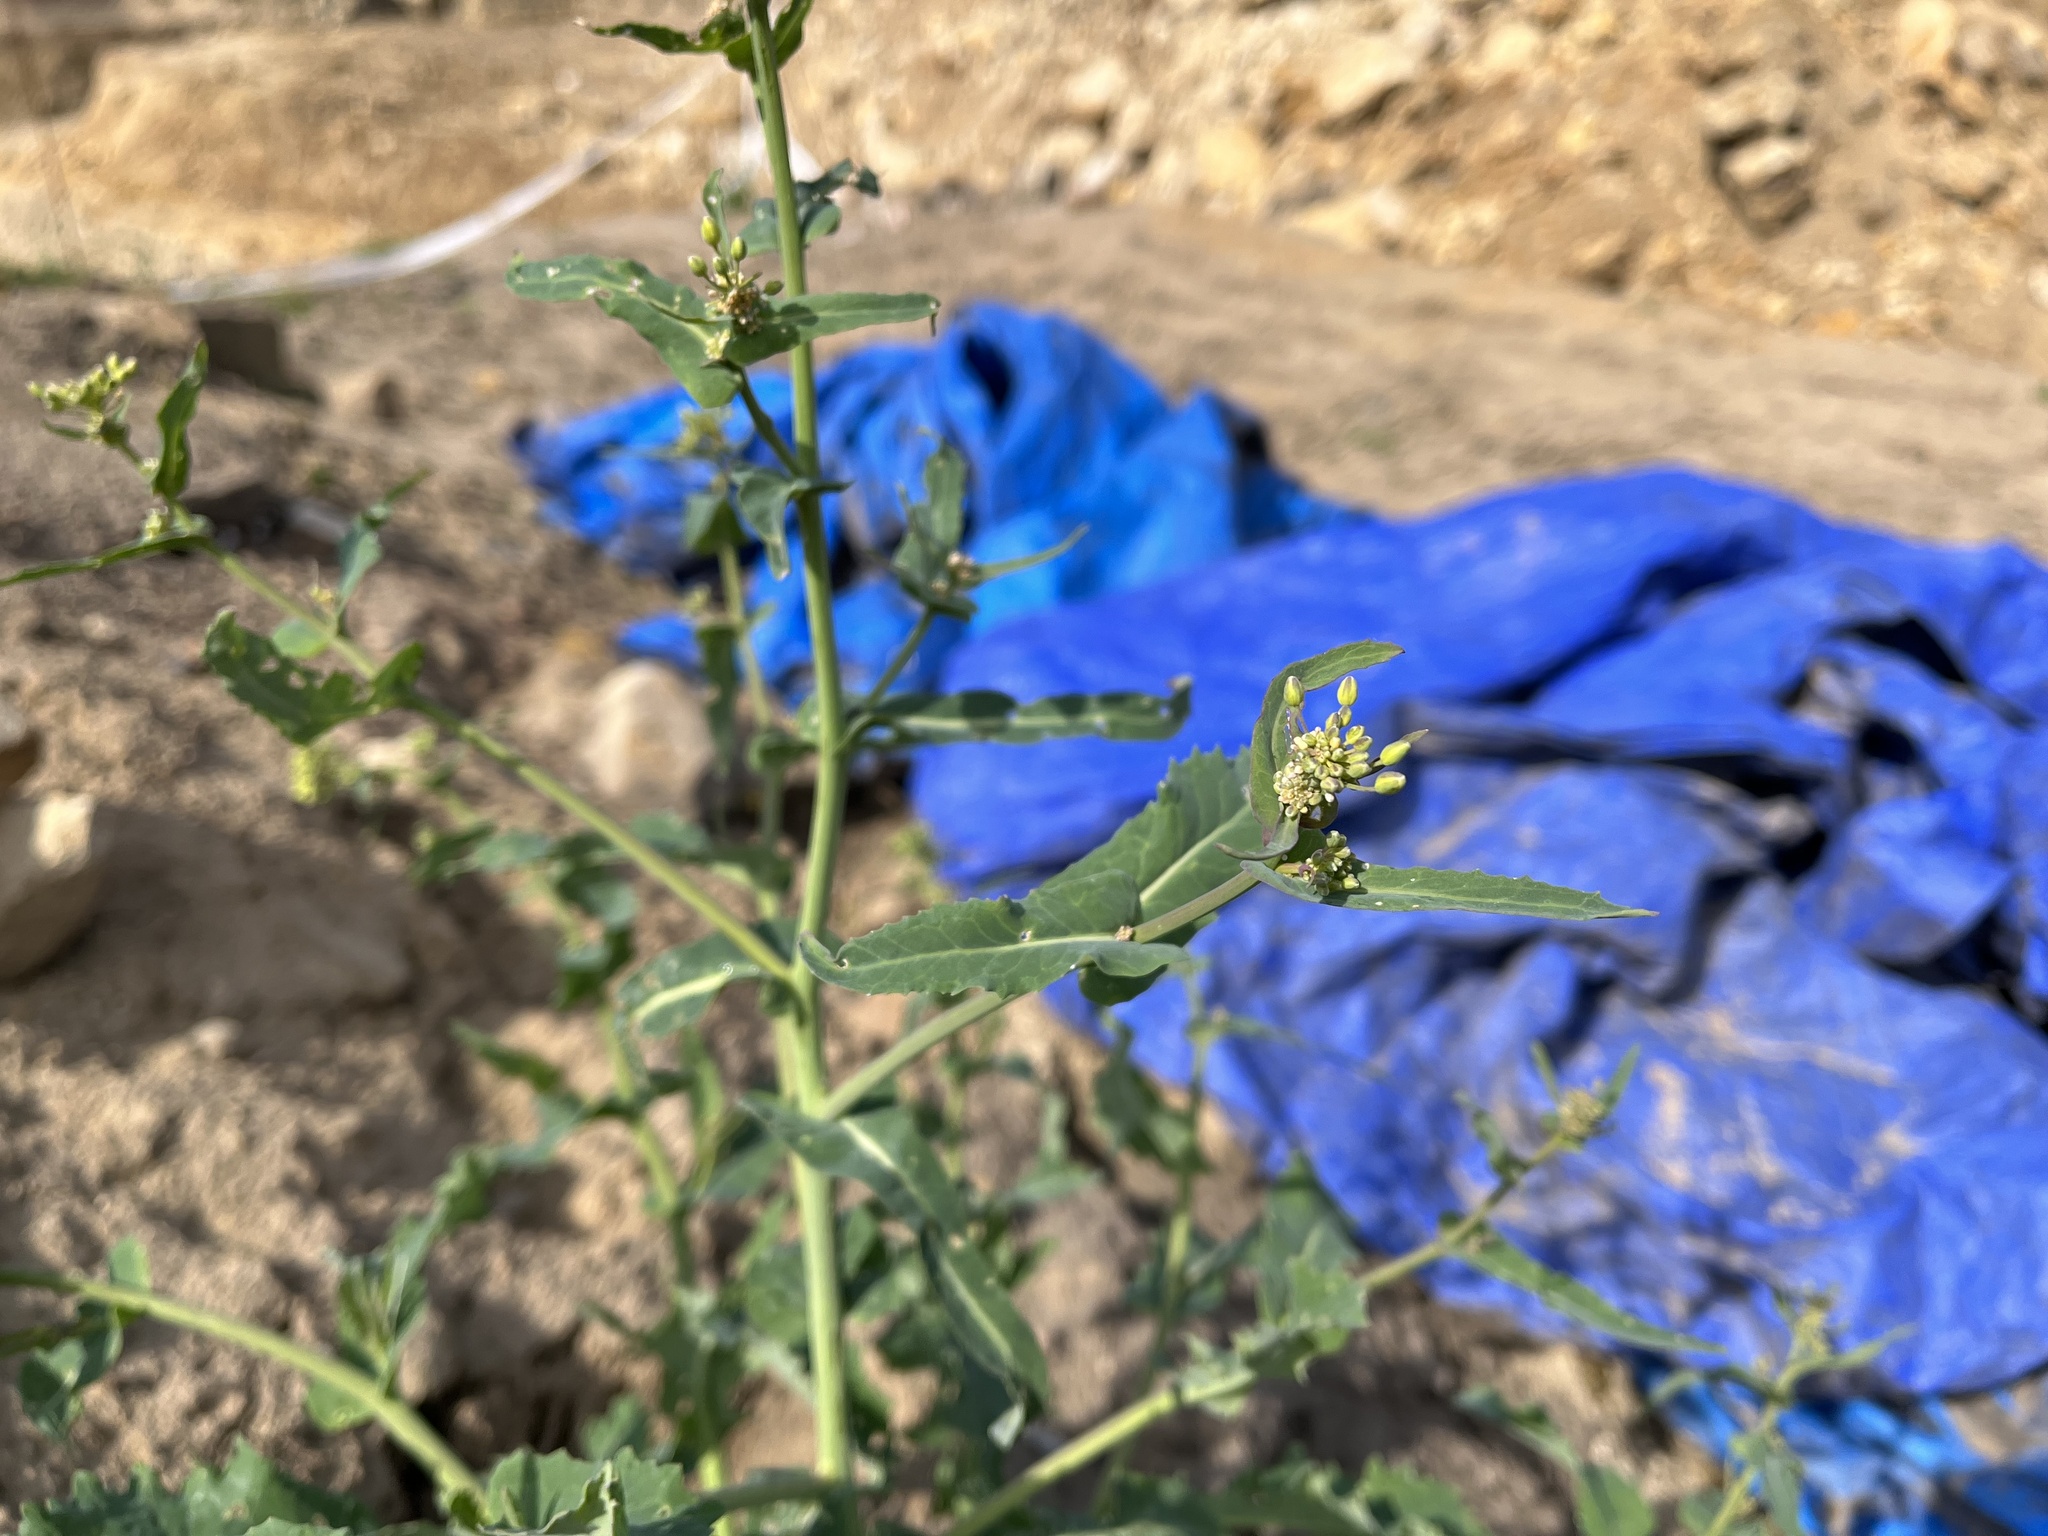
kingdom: Plantae
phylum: Tracheophyta
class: Magnoliopsida
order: Brassicales
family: Brassicaceae
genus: Brassica
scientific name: Brassica napus
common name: Rape
